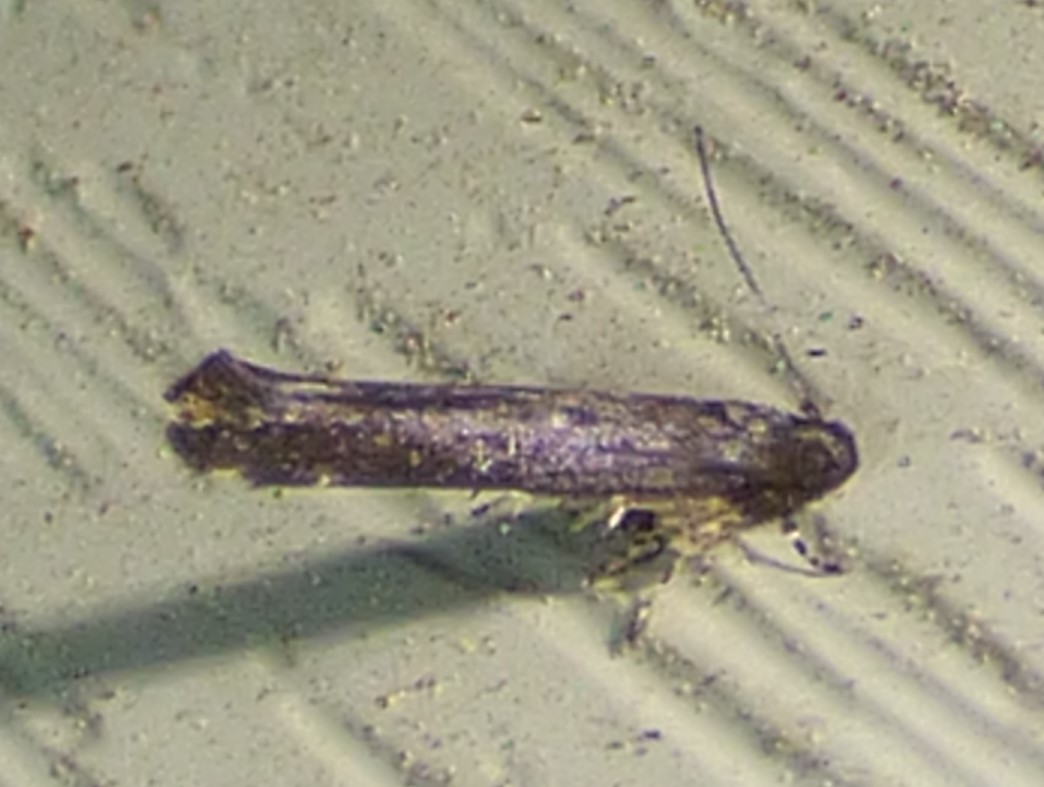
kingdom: Animalia
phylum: Arthropoda
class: Insecta
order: Lepidoptera
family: Cosmopterigidae
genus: Ithome
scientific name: Ithome erransella
